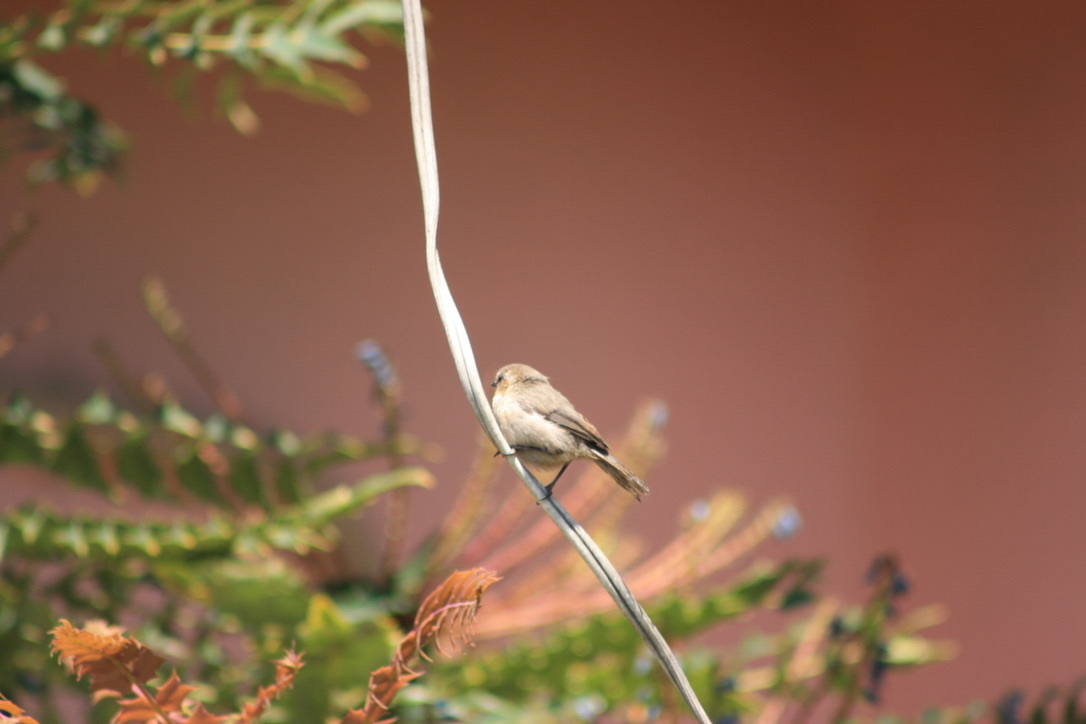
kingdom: Animalia
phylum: Chordata
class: Aves
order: Passeriformes
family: Aegithalidae
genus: Psaltriparus
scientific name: Psaltriparus minimus
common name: American bushtit
